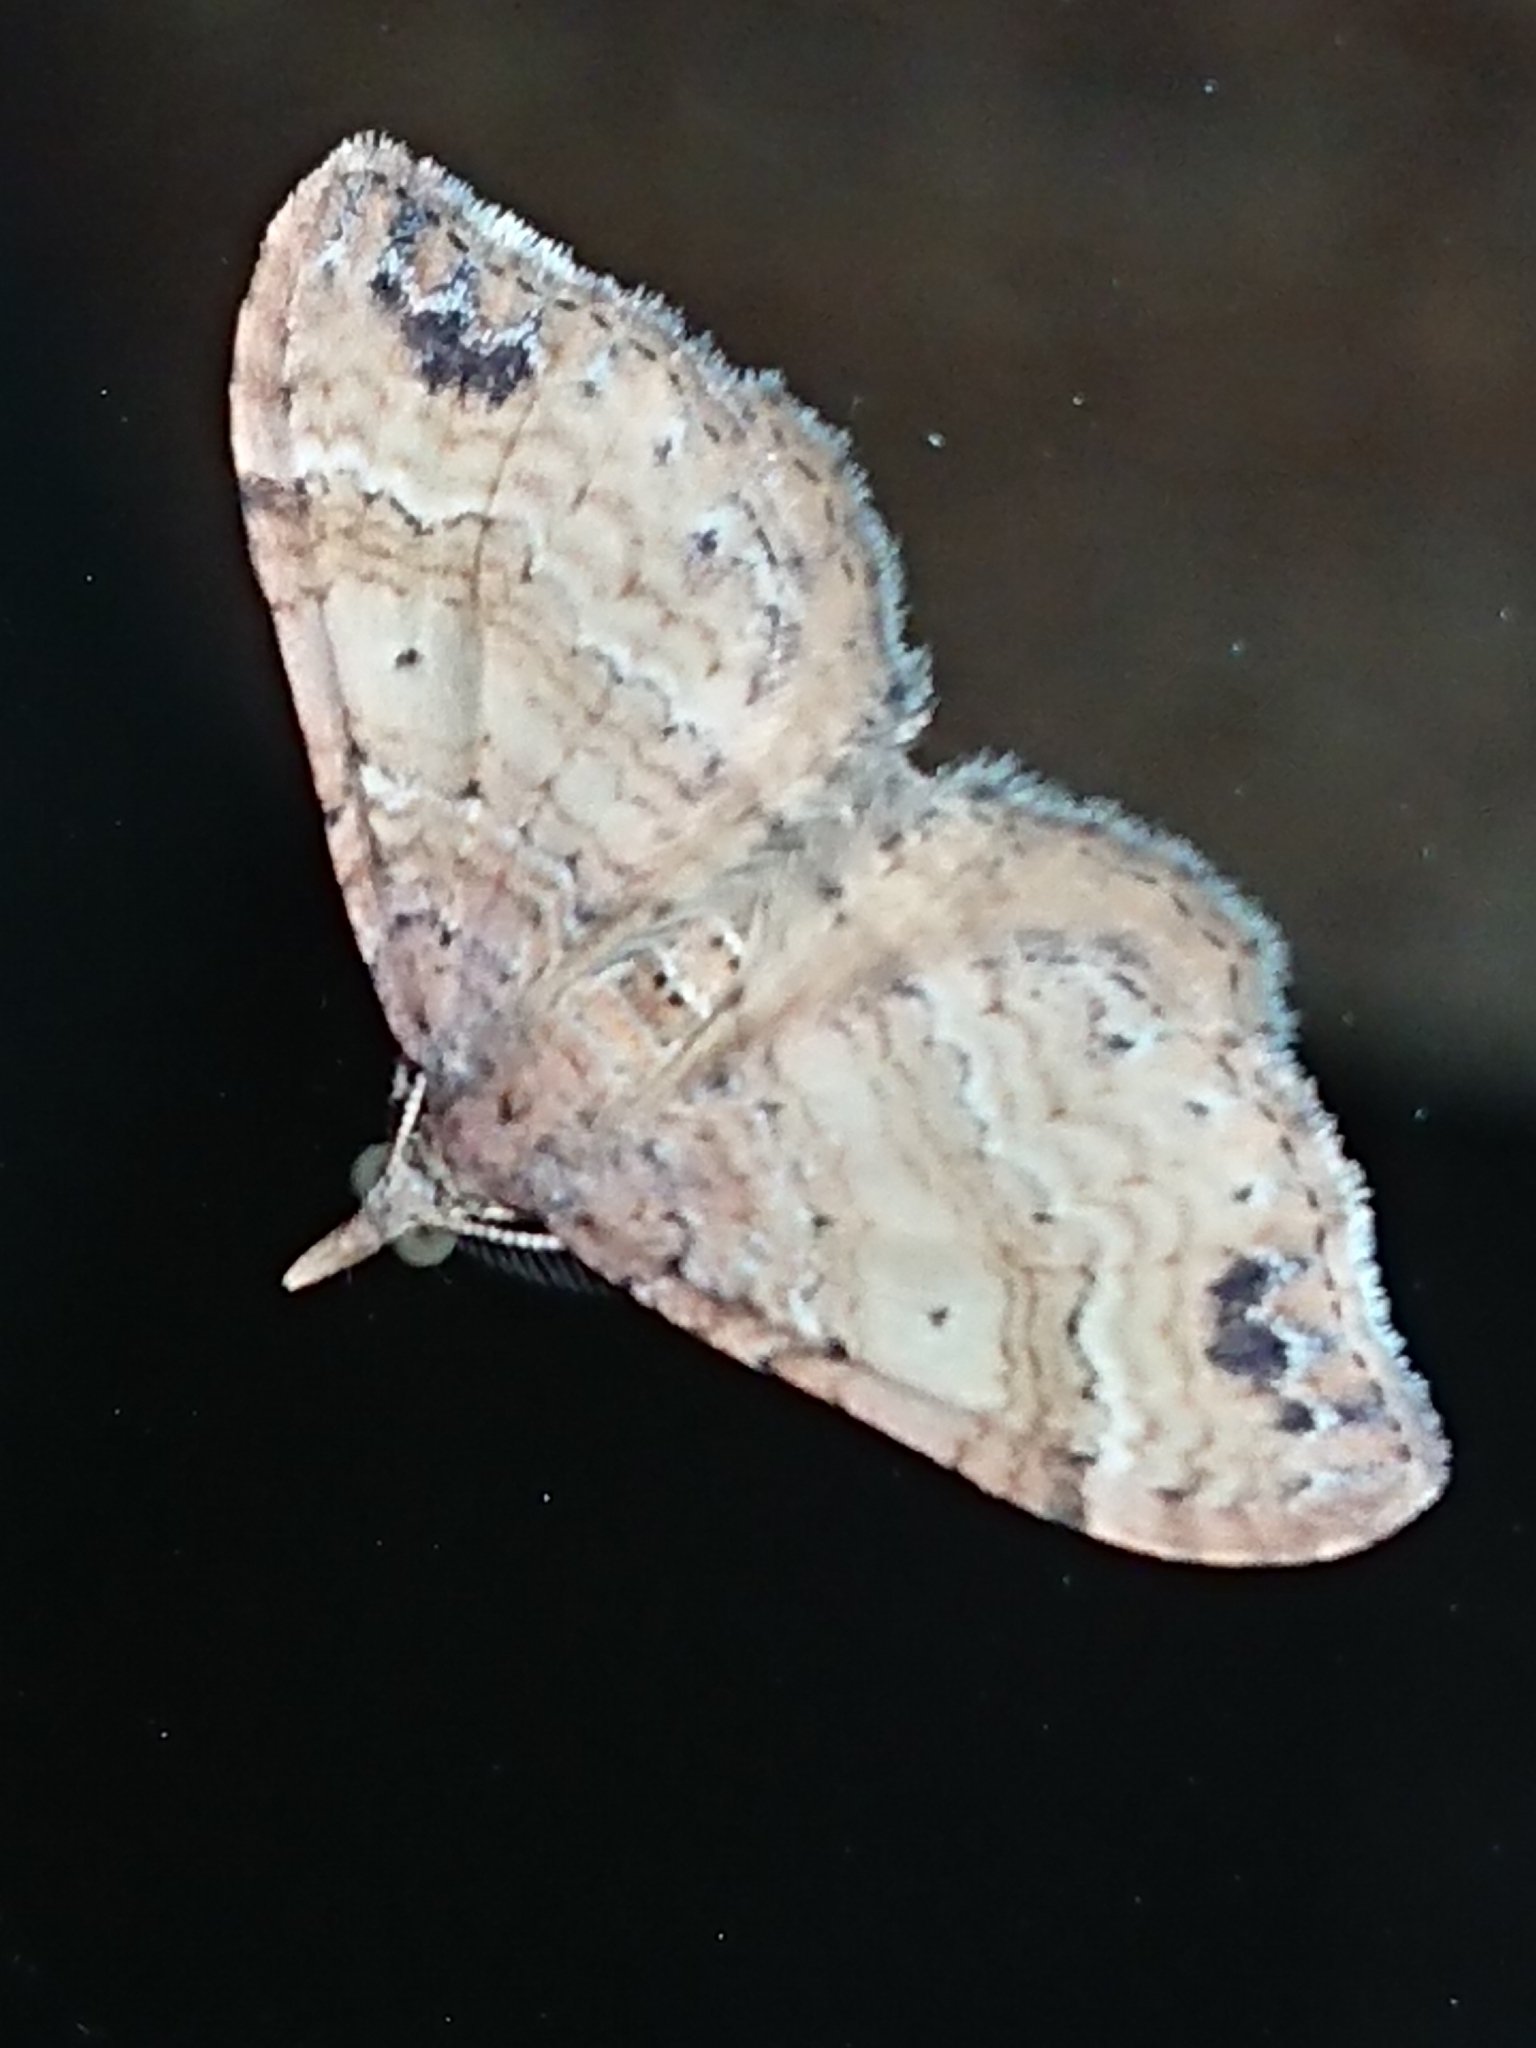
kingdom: Animalia
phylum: Arthropoda
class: Insecta
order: Lepidoptera
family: Geometridae
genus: Homodotis
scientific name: Homodotis megaspilata
